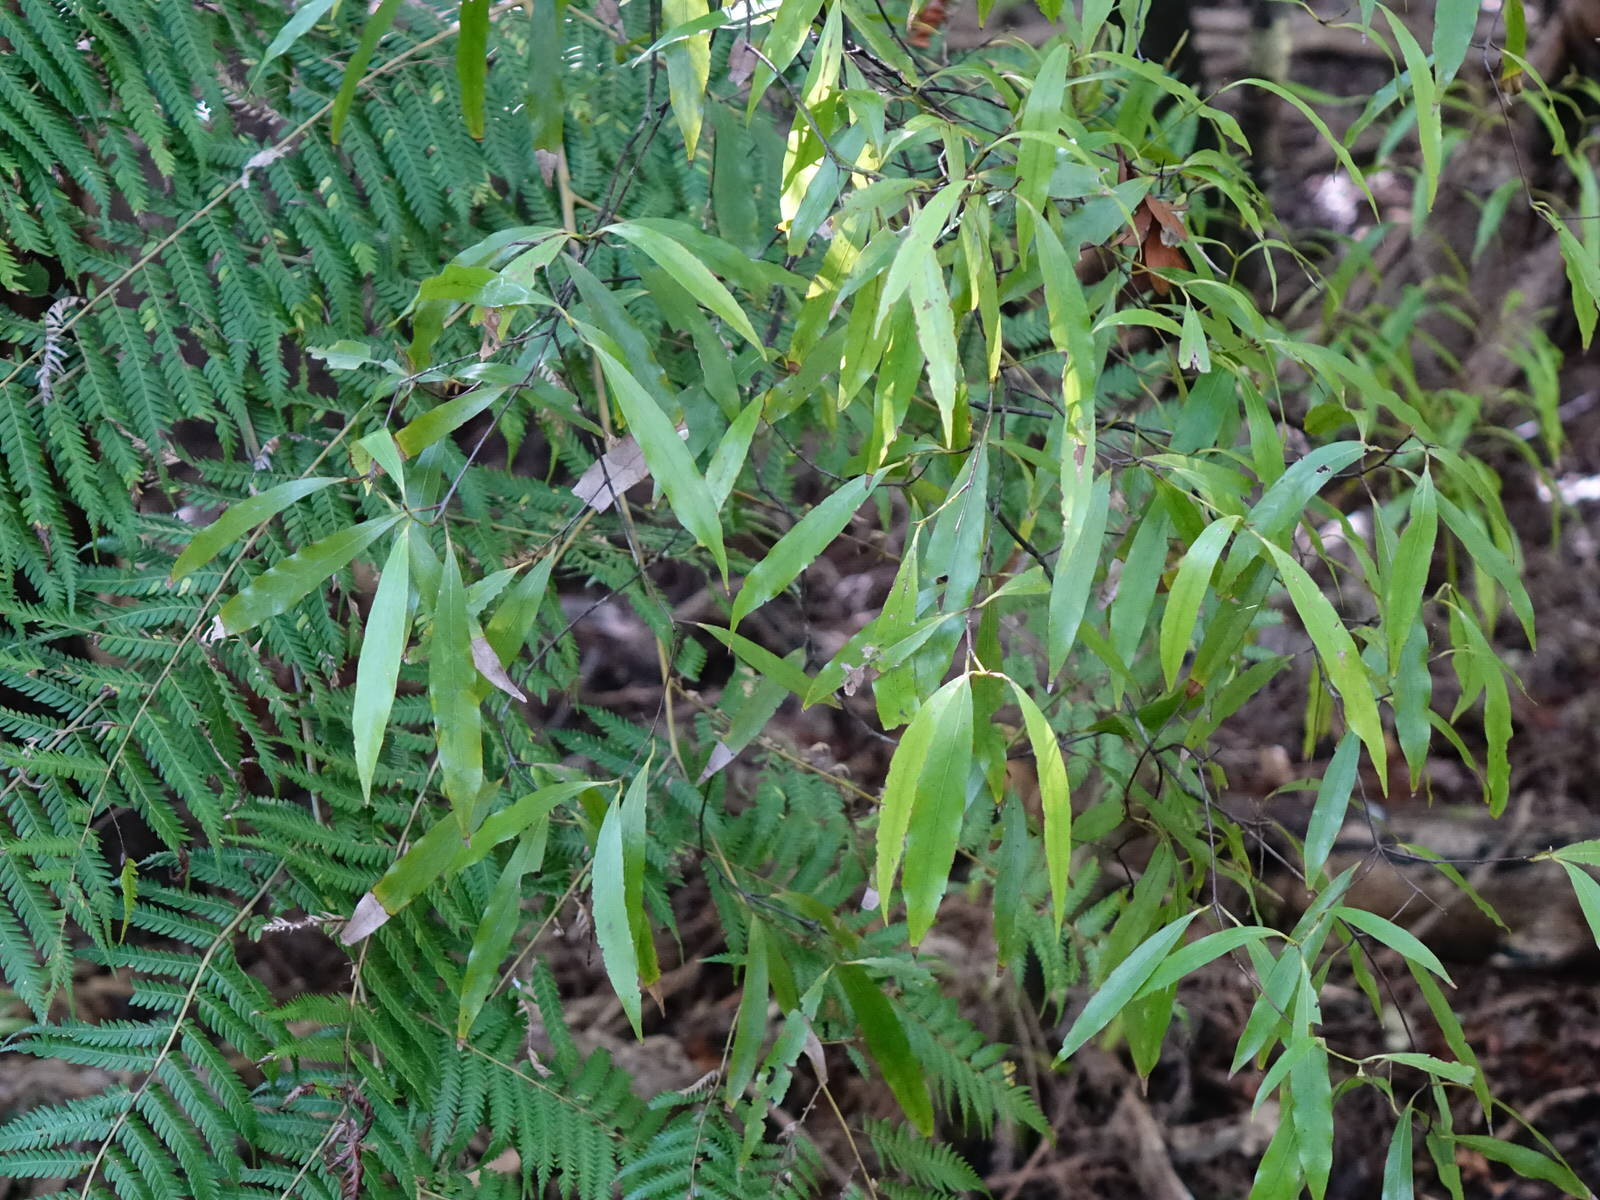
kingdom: Plantae
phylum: Tracheophyta
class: Magnoliopsida
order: Laurales
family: Lauraceae
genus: Beilschmiedia
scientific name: Beilschmiedia tawa
